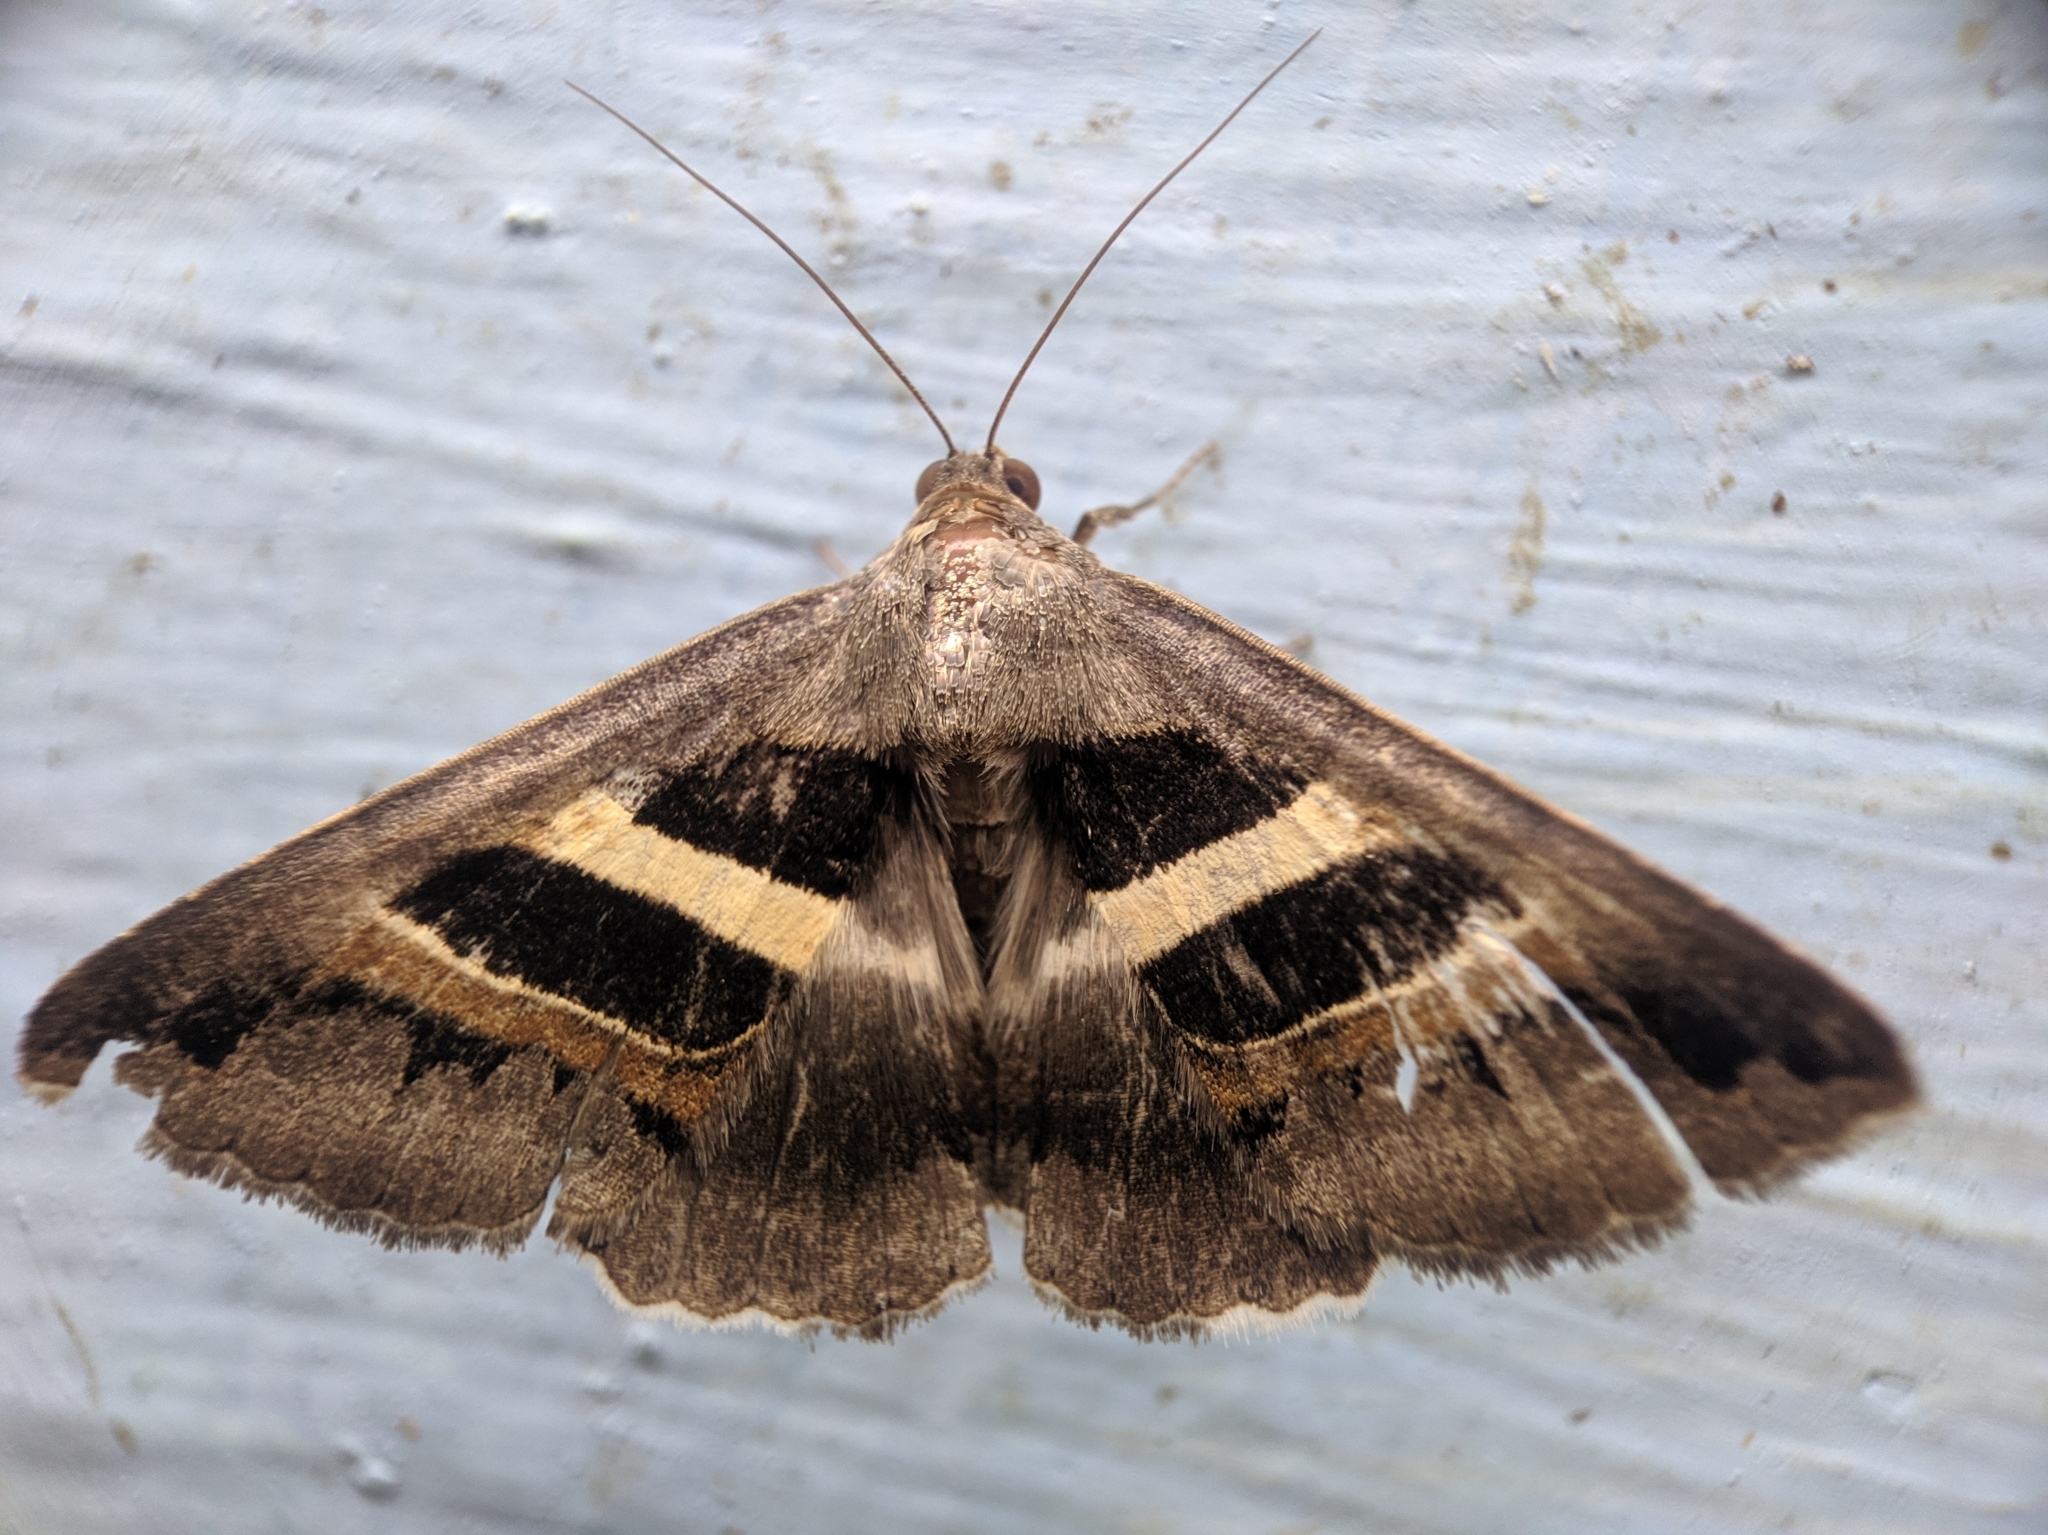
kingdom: Animalia
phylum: Arthropoda
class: Insecta
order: Lepidoptera
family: Erebidae
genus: Grammodes
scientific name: Grammodes geometrica
